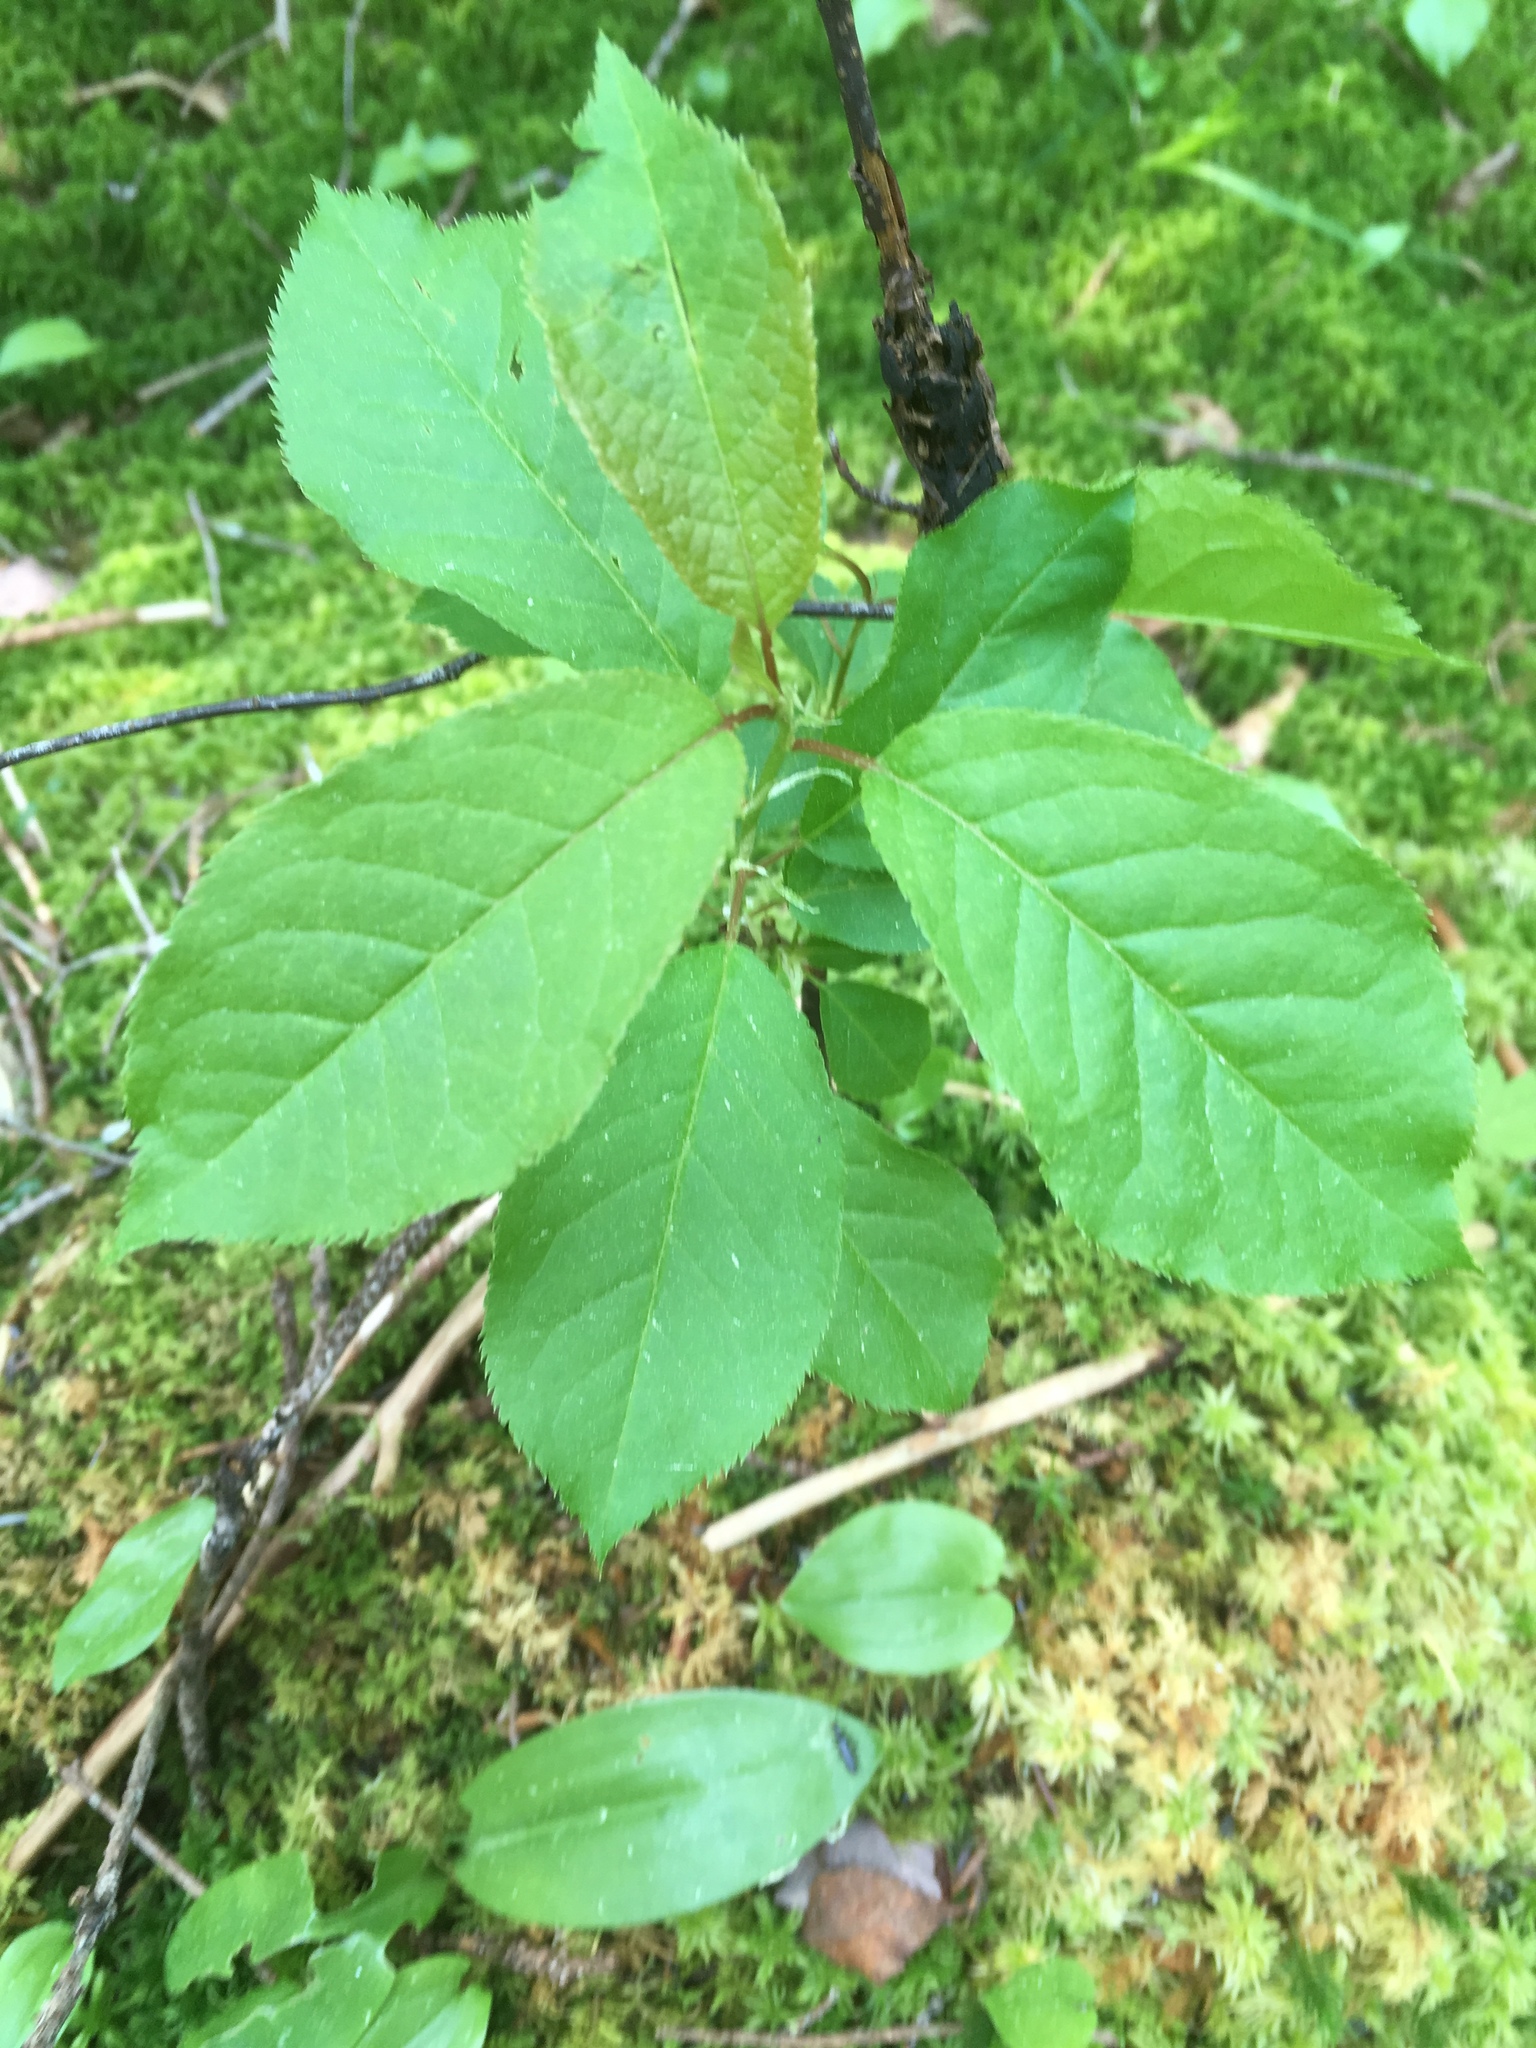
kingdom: Plantae
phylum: Tracheophyta
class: Magnoliopsida
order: Rosales
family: Rosaceae
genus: Prunus
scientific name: Prunus virginiana
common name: Chokecherry
